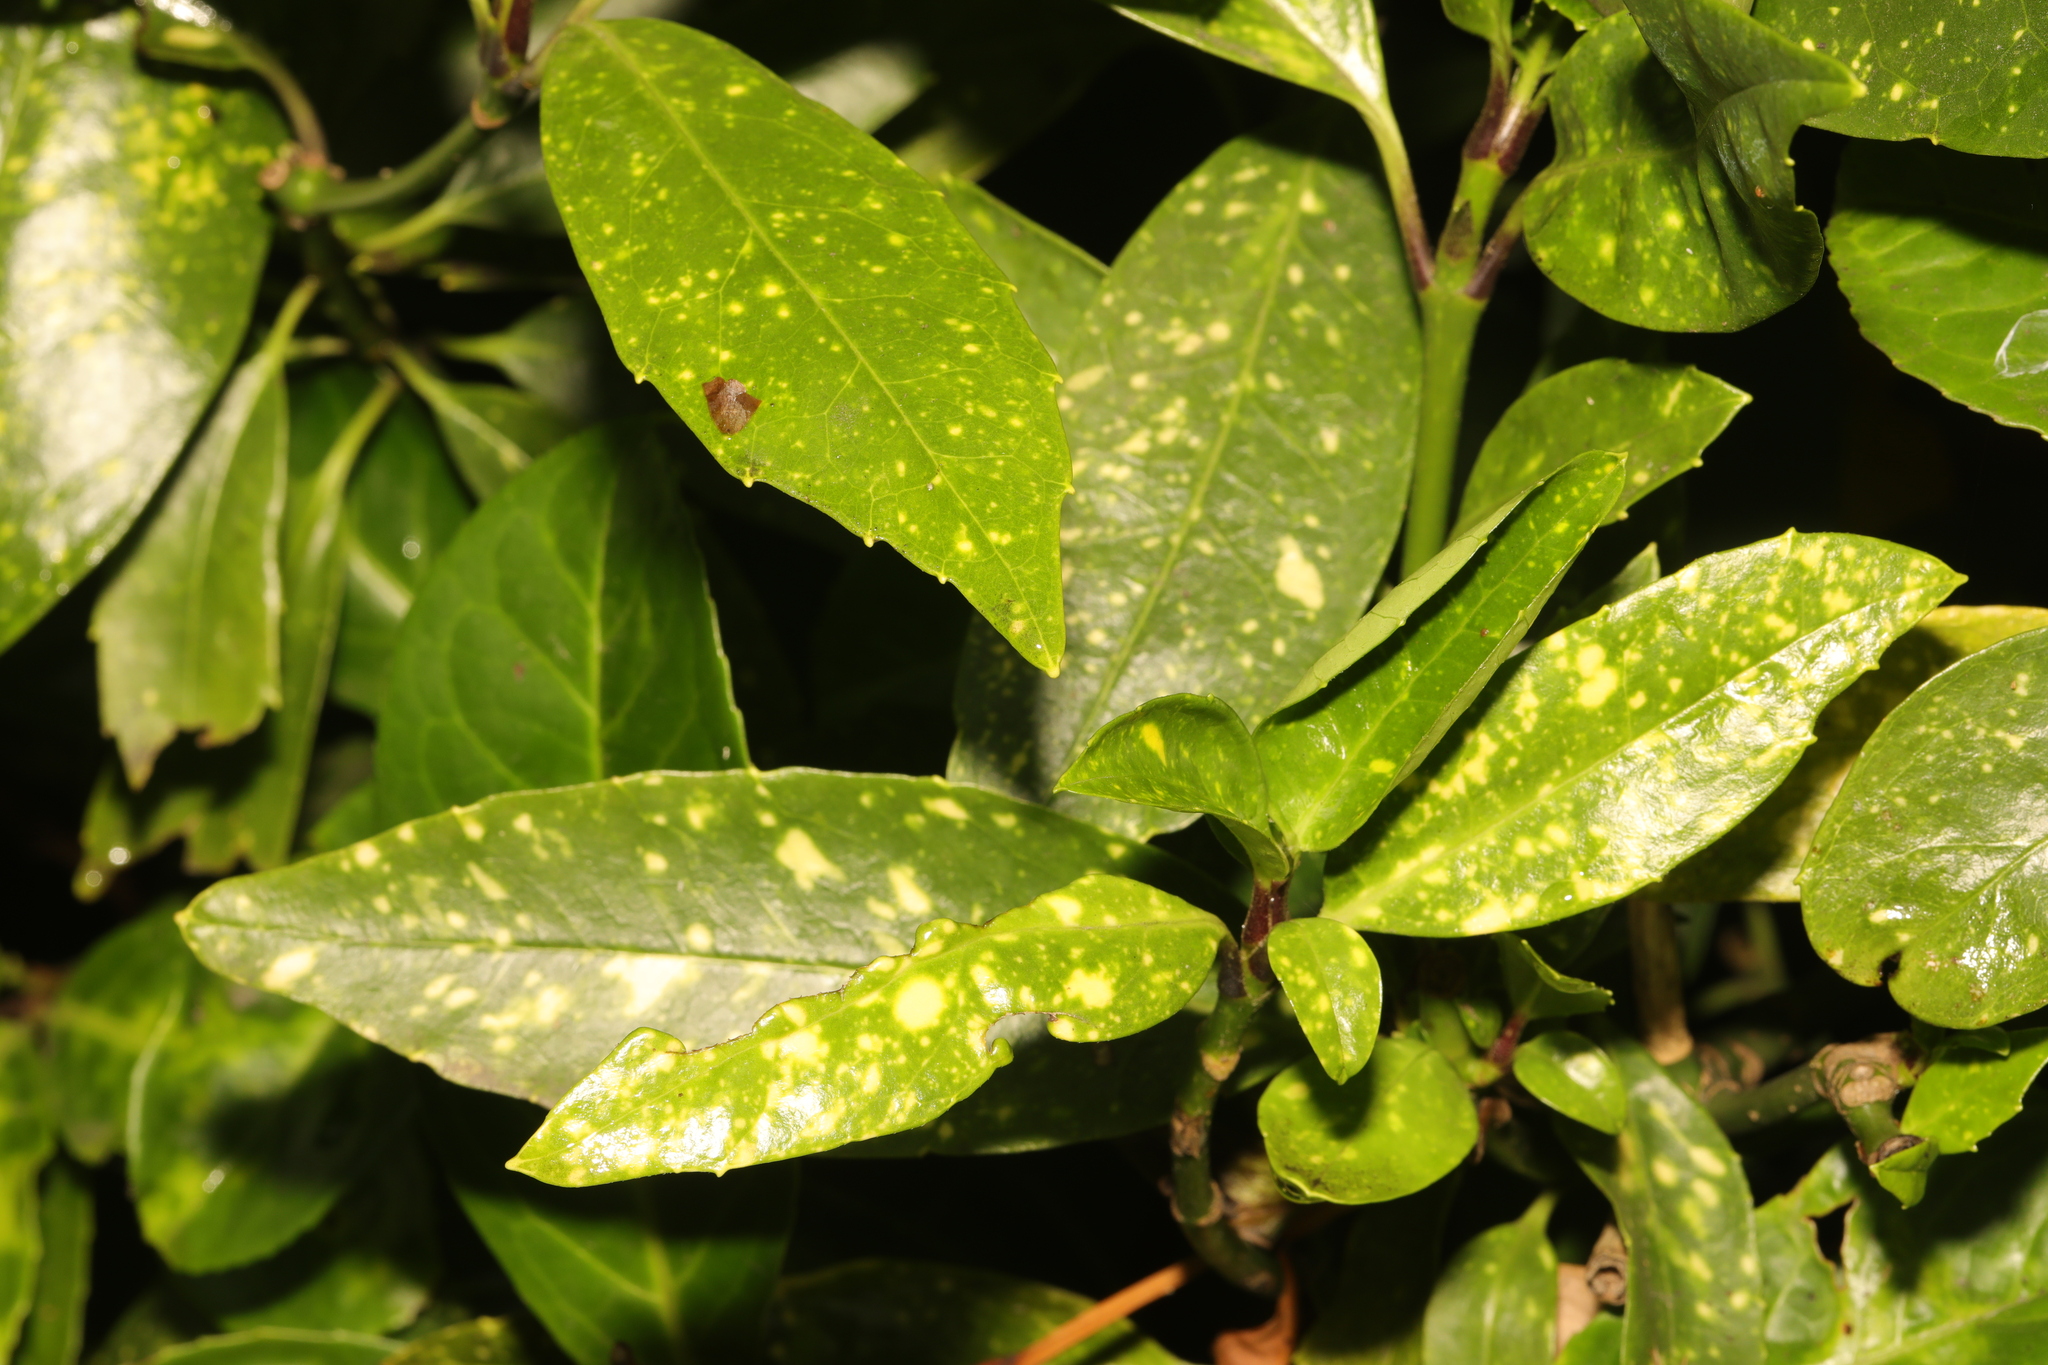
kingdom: Plantae
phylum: Tracheophyta
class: Magnoliopsida
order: Garryales
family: Garryaceae
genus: Aucuba
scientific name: Aucuba japonica
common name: Spotted-laurel
